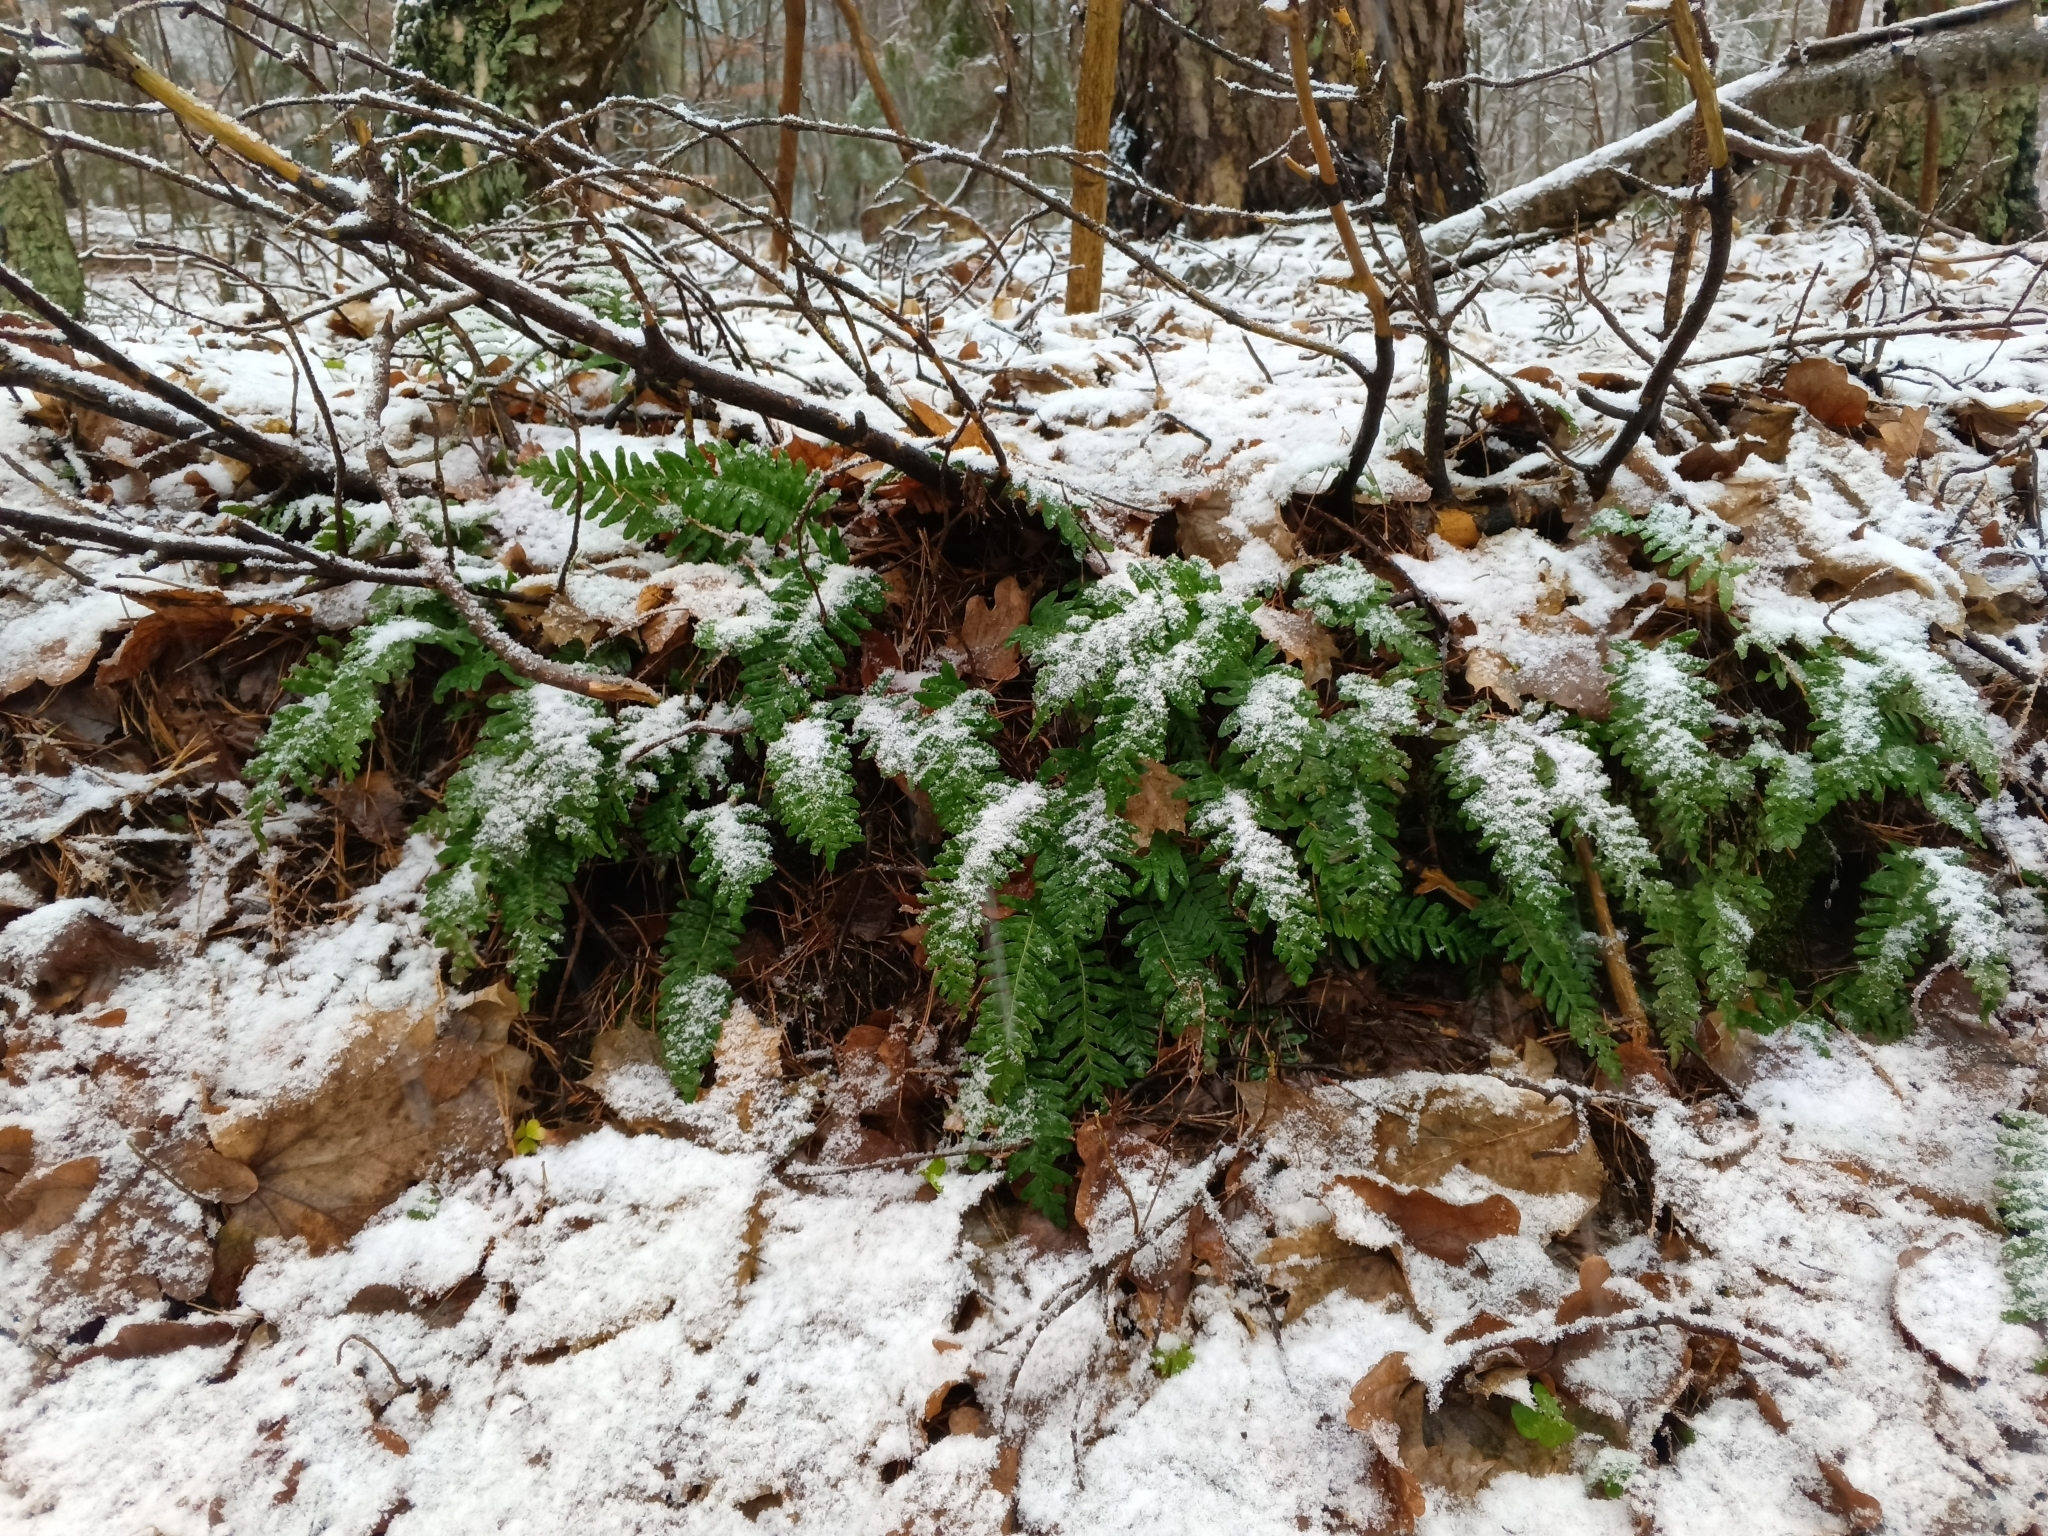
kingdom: Plantae
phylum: Tracheophyta
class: Polypodiopsida
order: Polypodiales
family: Polypodiaceae
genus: Polypodium
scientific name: Polypodium vulgare
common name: Common polypody
